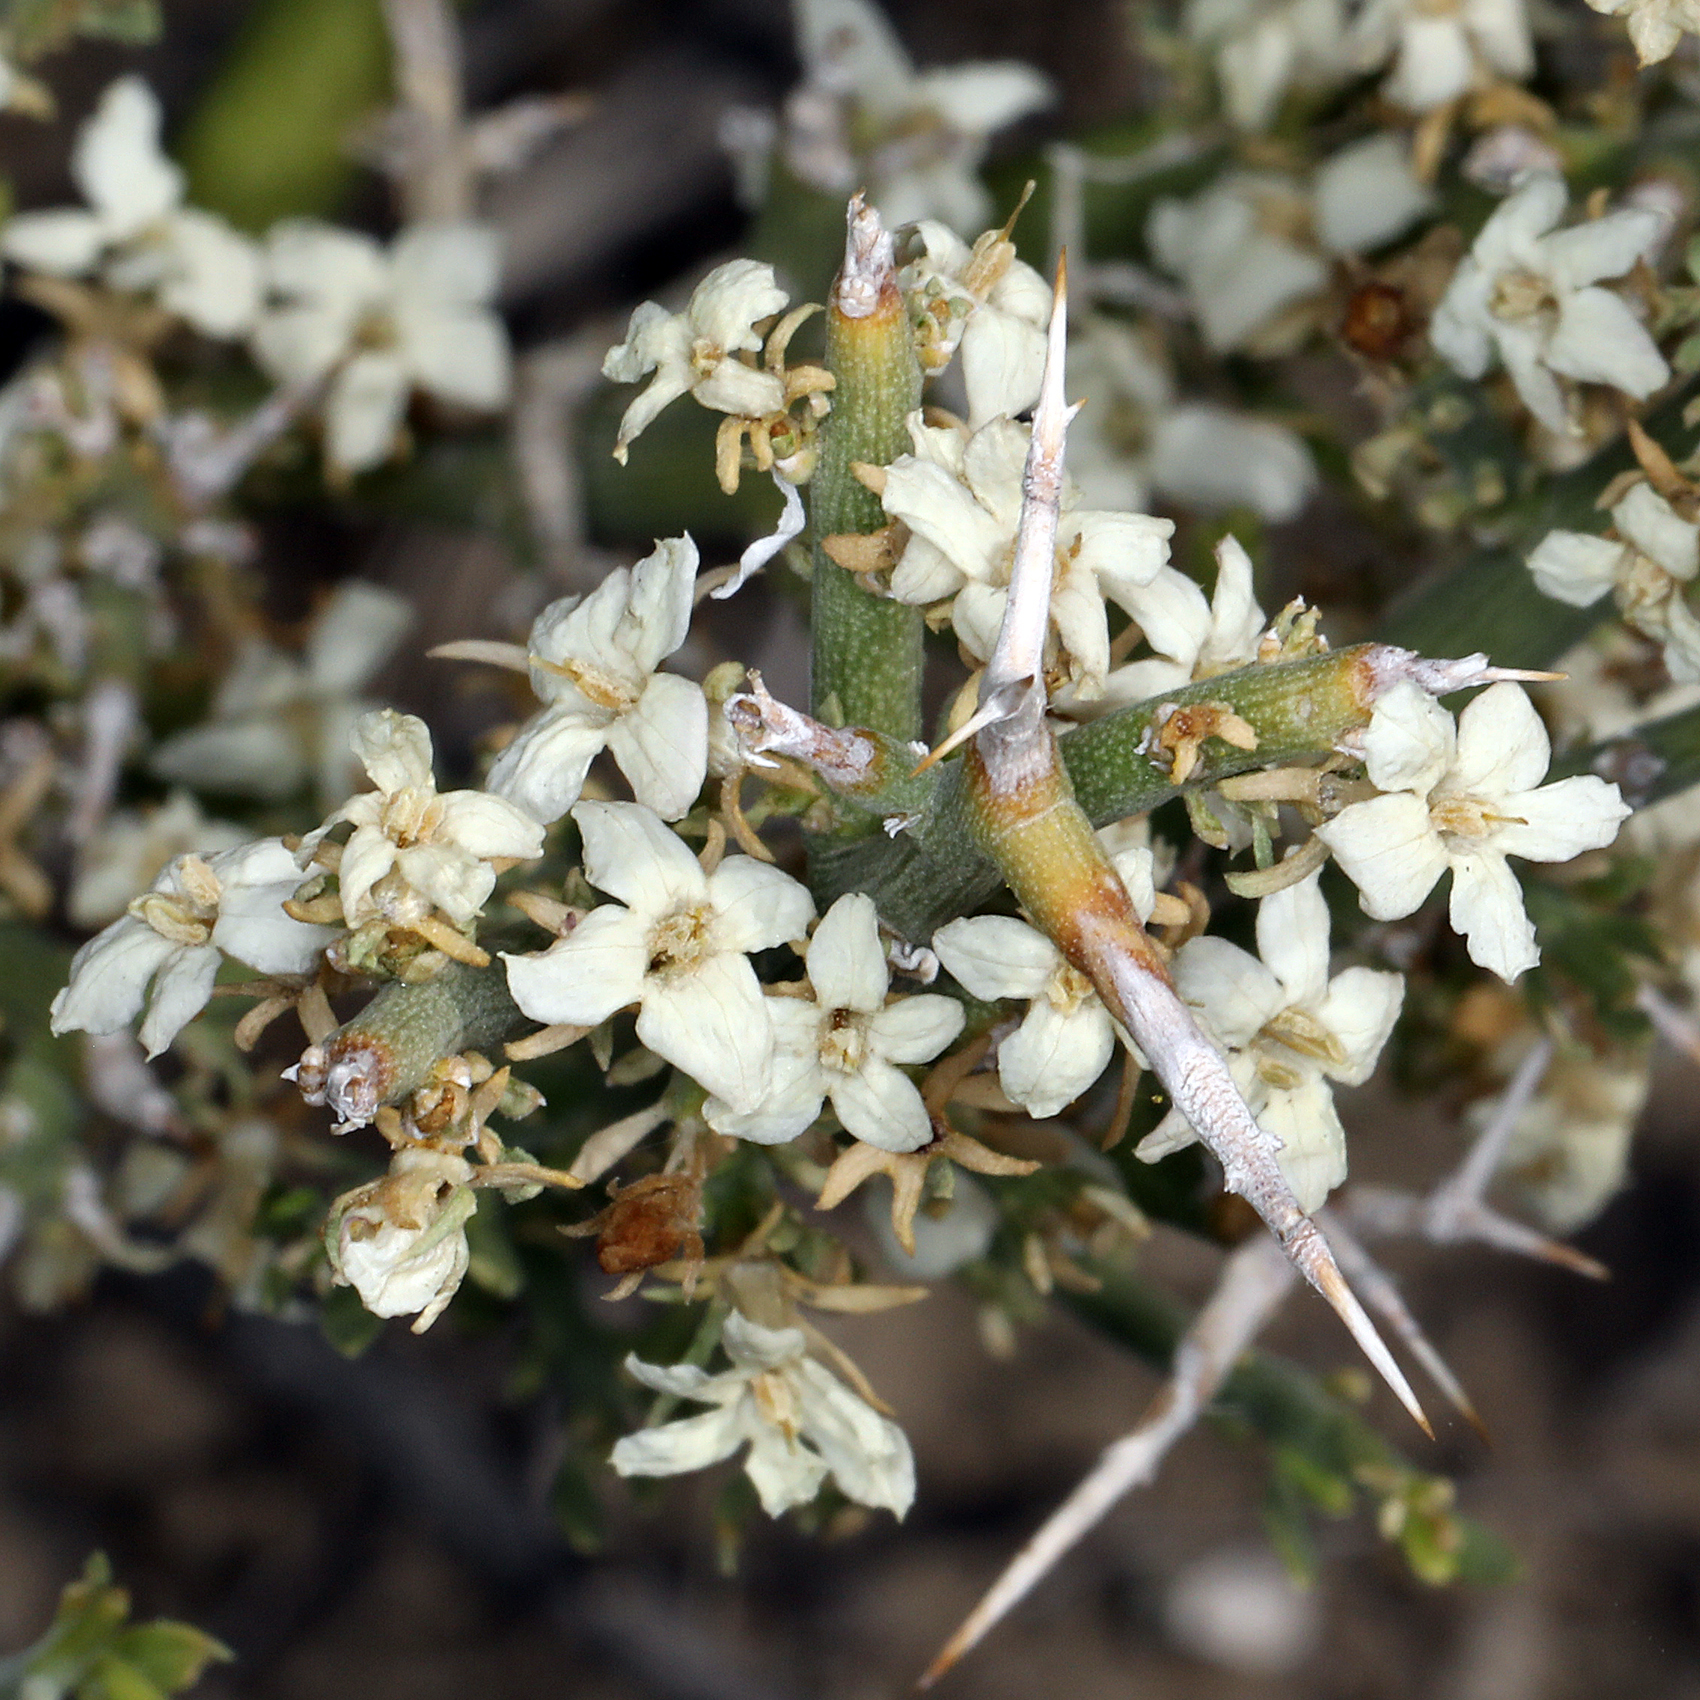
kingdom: Plantae
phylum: Tracheophyta
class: Magnoliopsida
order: Lamiales
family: Oleaceae
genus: Menodora
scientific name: Menodora spinescens
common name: Spiny menodora
